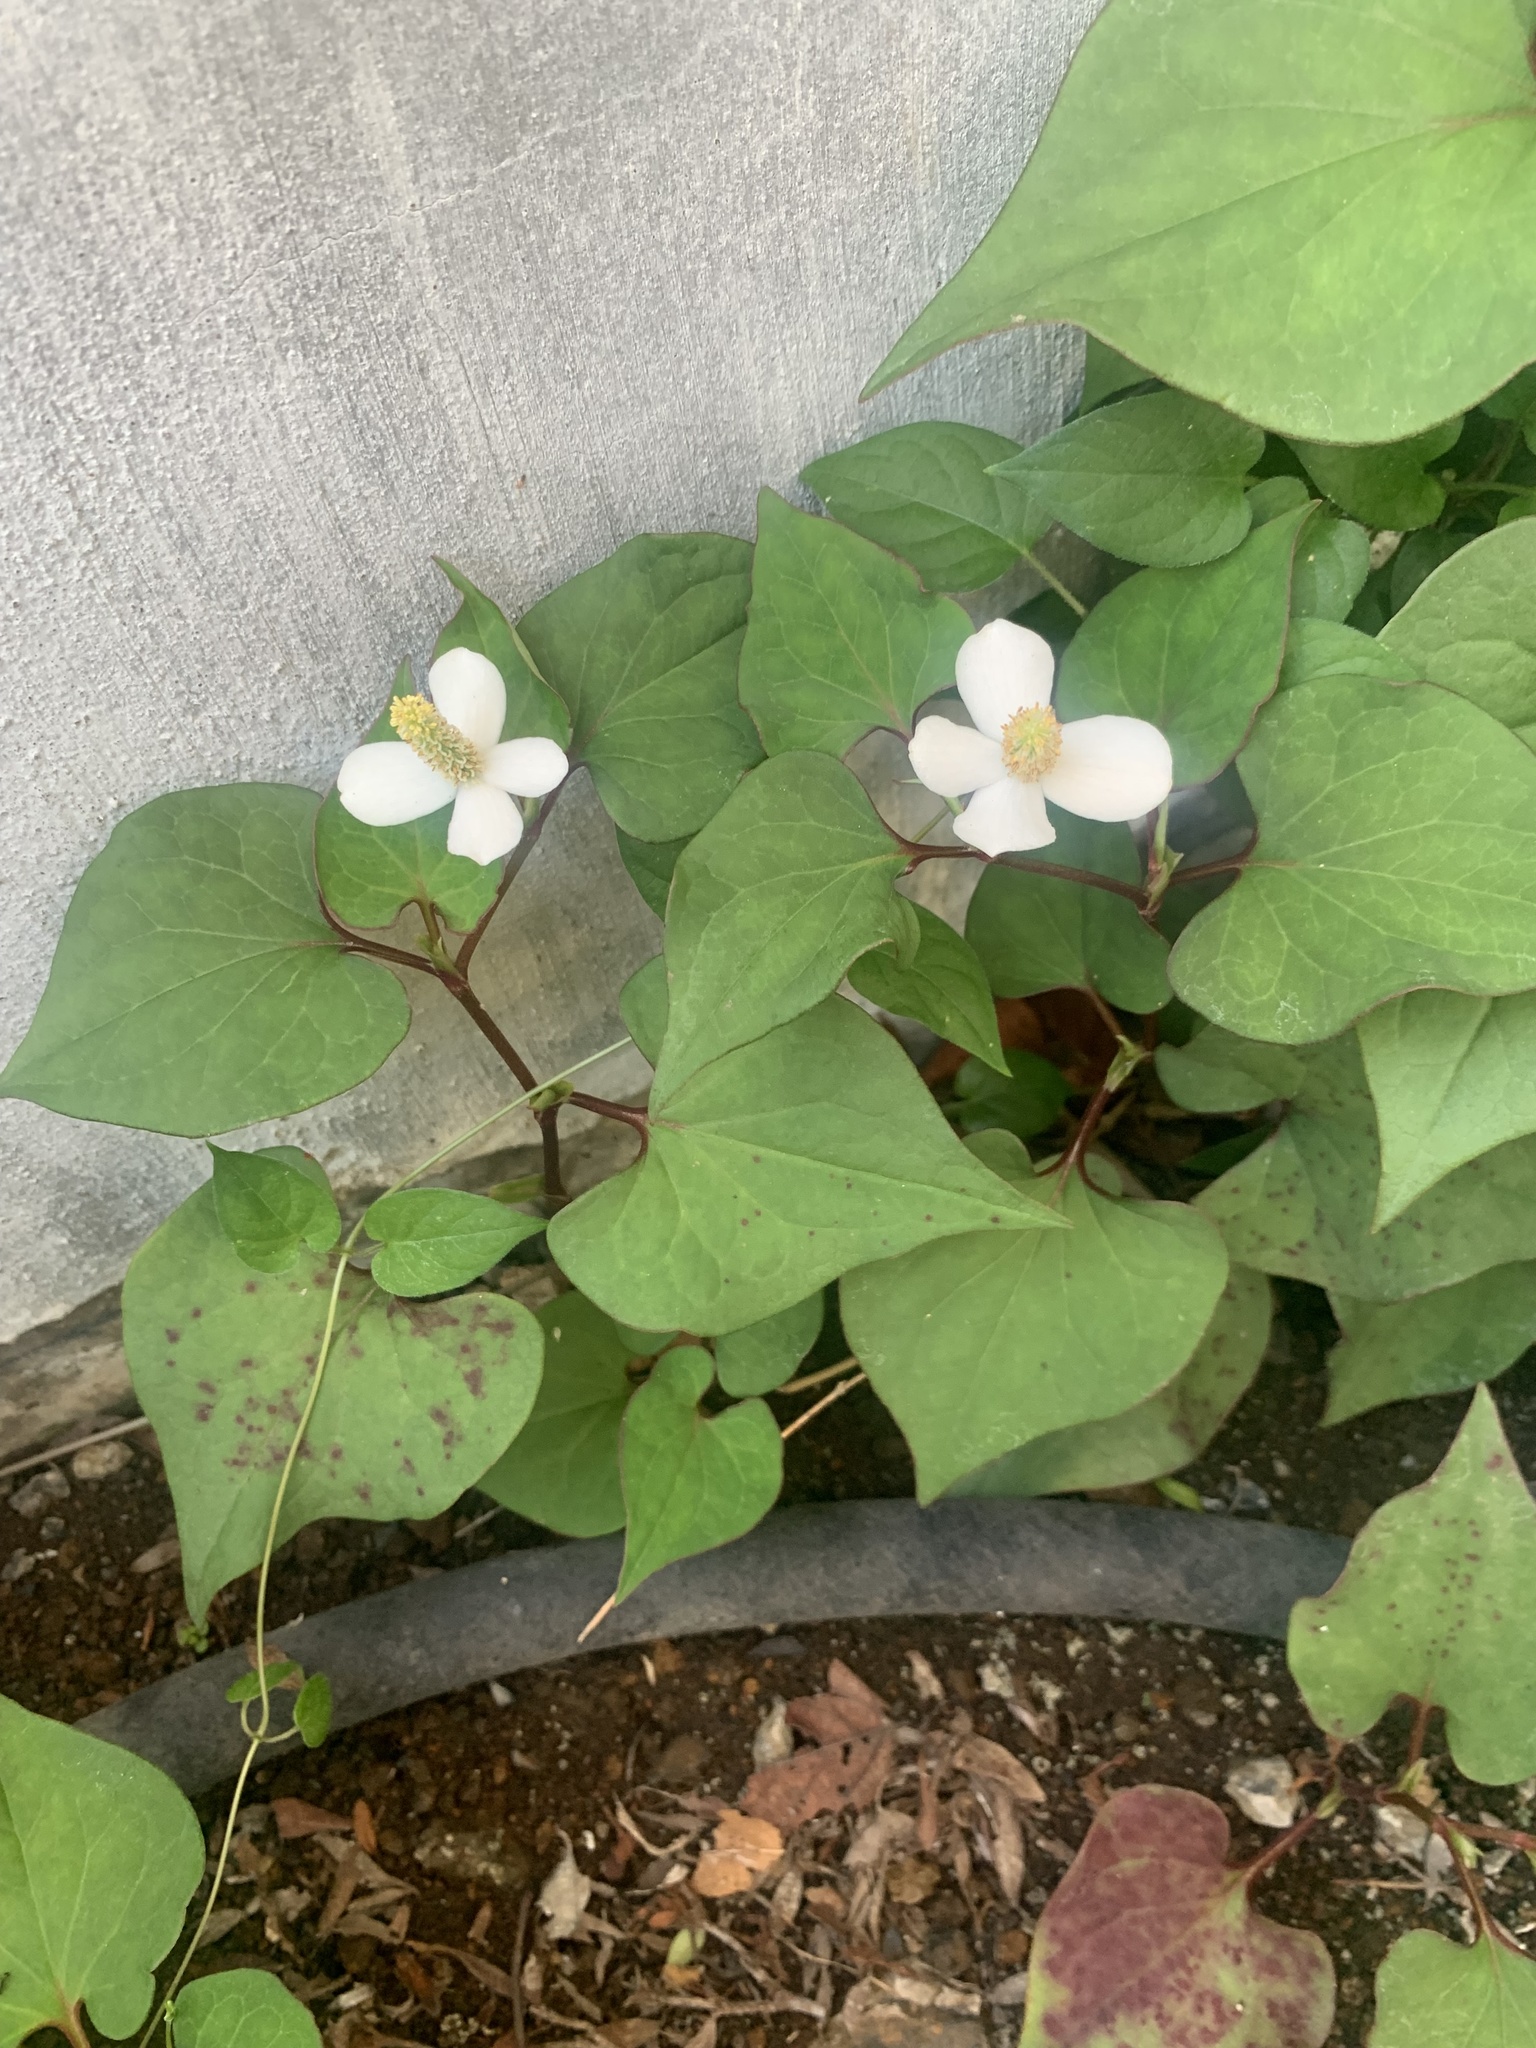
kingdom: Plantae
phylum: Tracheophyta
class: Magnoliopsida
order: Piperales
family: Saururaceae
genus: Houttuynia
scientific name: Houttuynia cordata
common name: Chameleon
